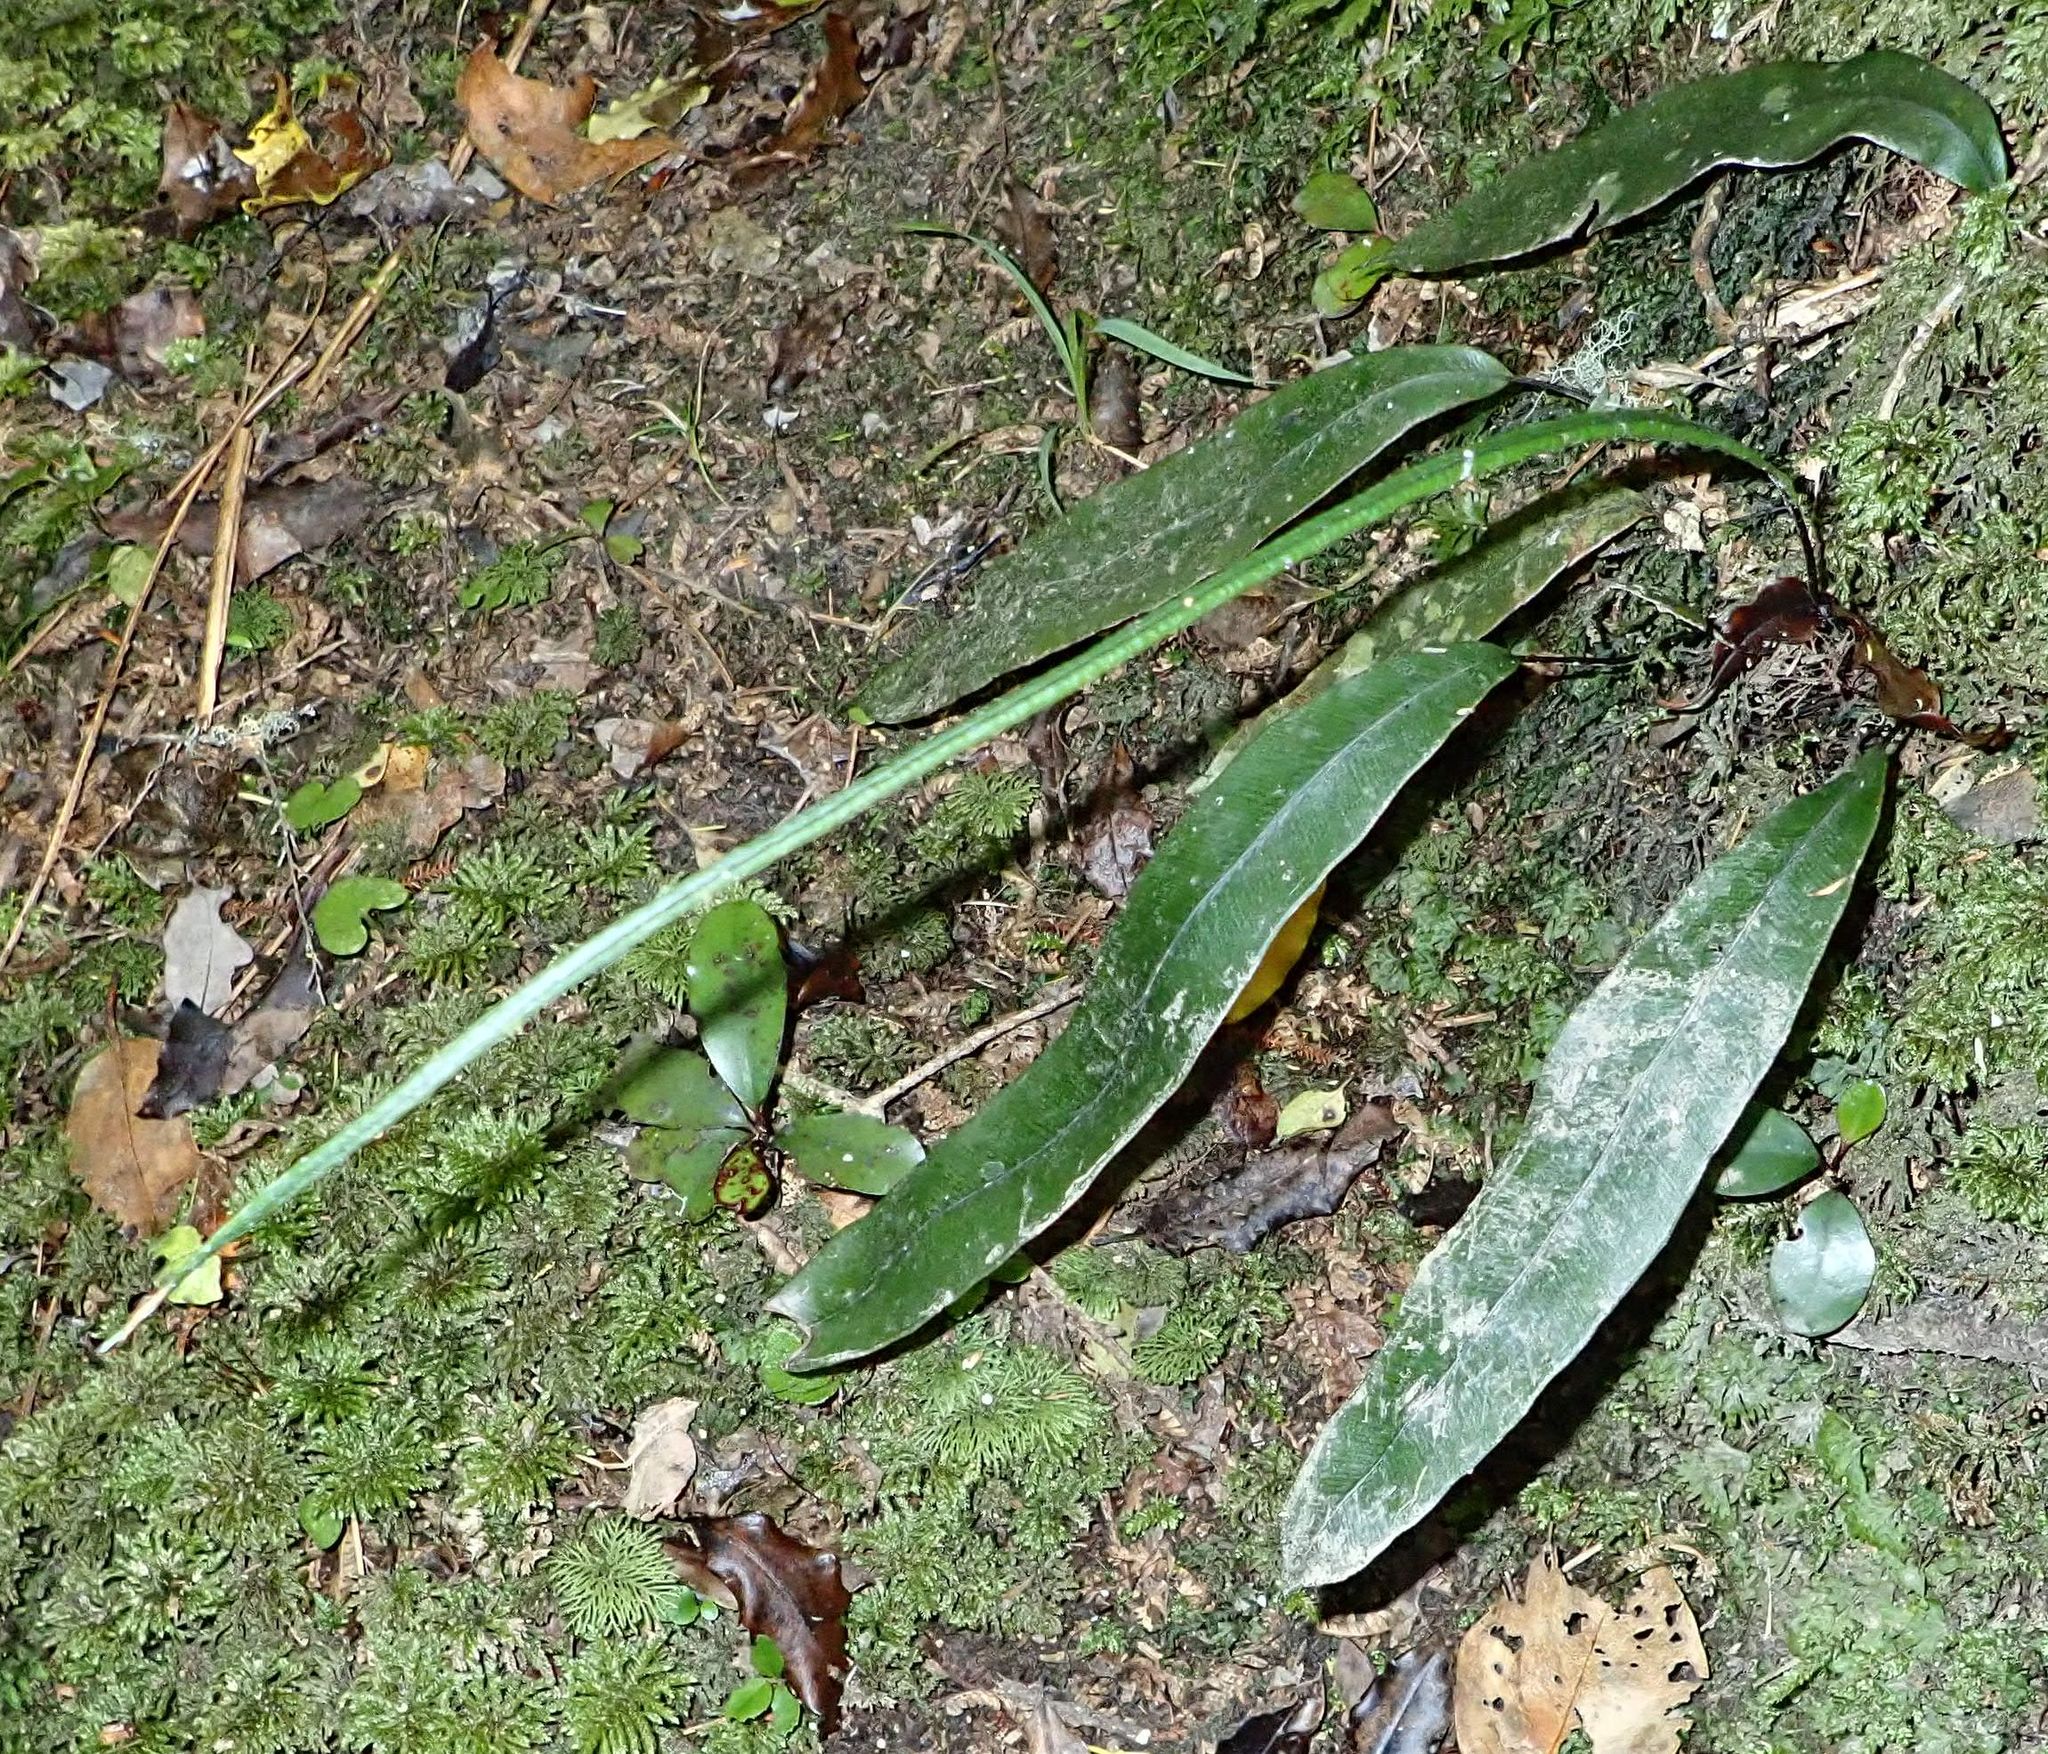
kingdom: Plantae
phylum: Tracheophyta
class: Polypodiopsida
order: Polypodiales
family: Blechnaceae
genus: Austroblechnum
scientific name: Austroblechnum colensoi
